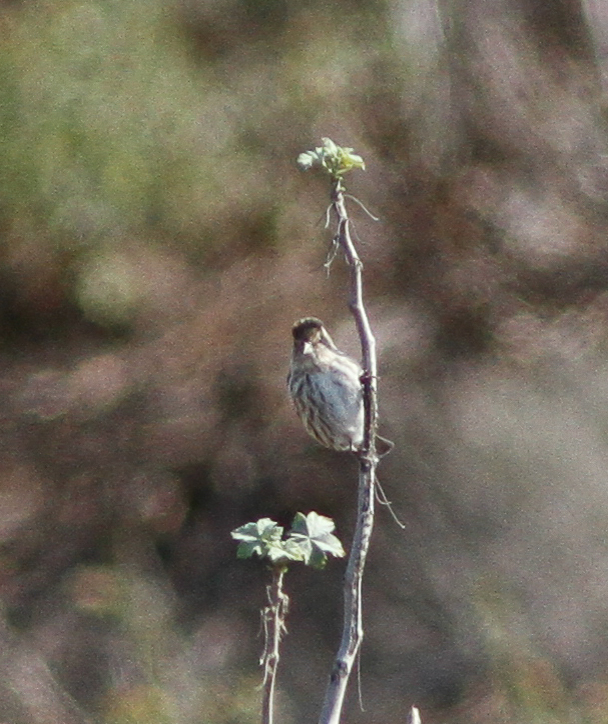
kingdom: Animalia
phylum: Chordata
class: Aves
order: Passeriformes
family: Fringillidae
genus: Spinus
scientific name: Spinus pinus
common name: Pine siskin
